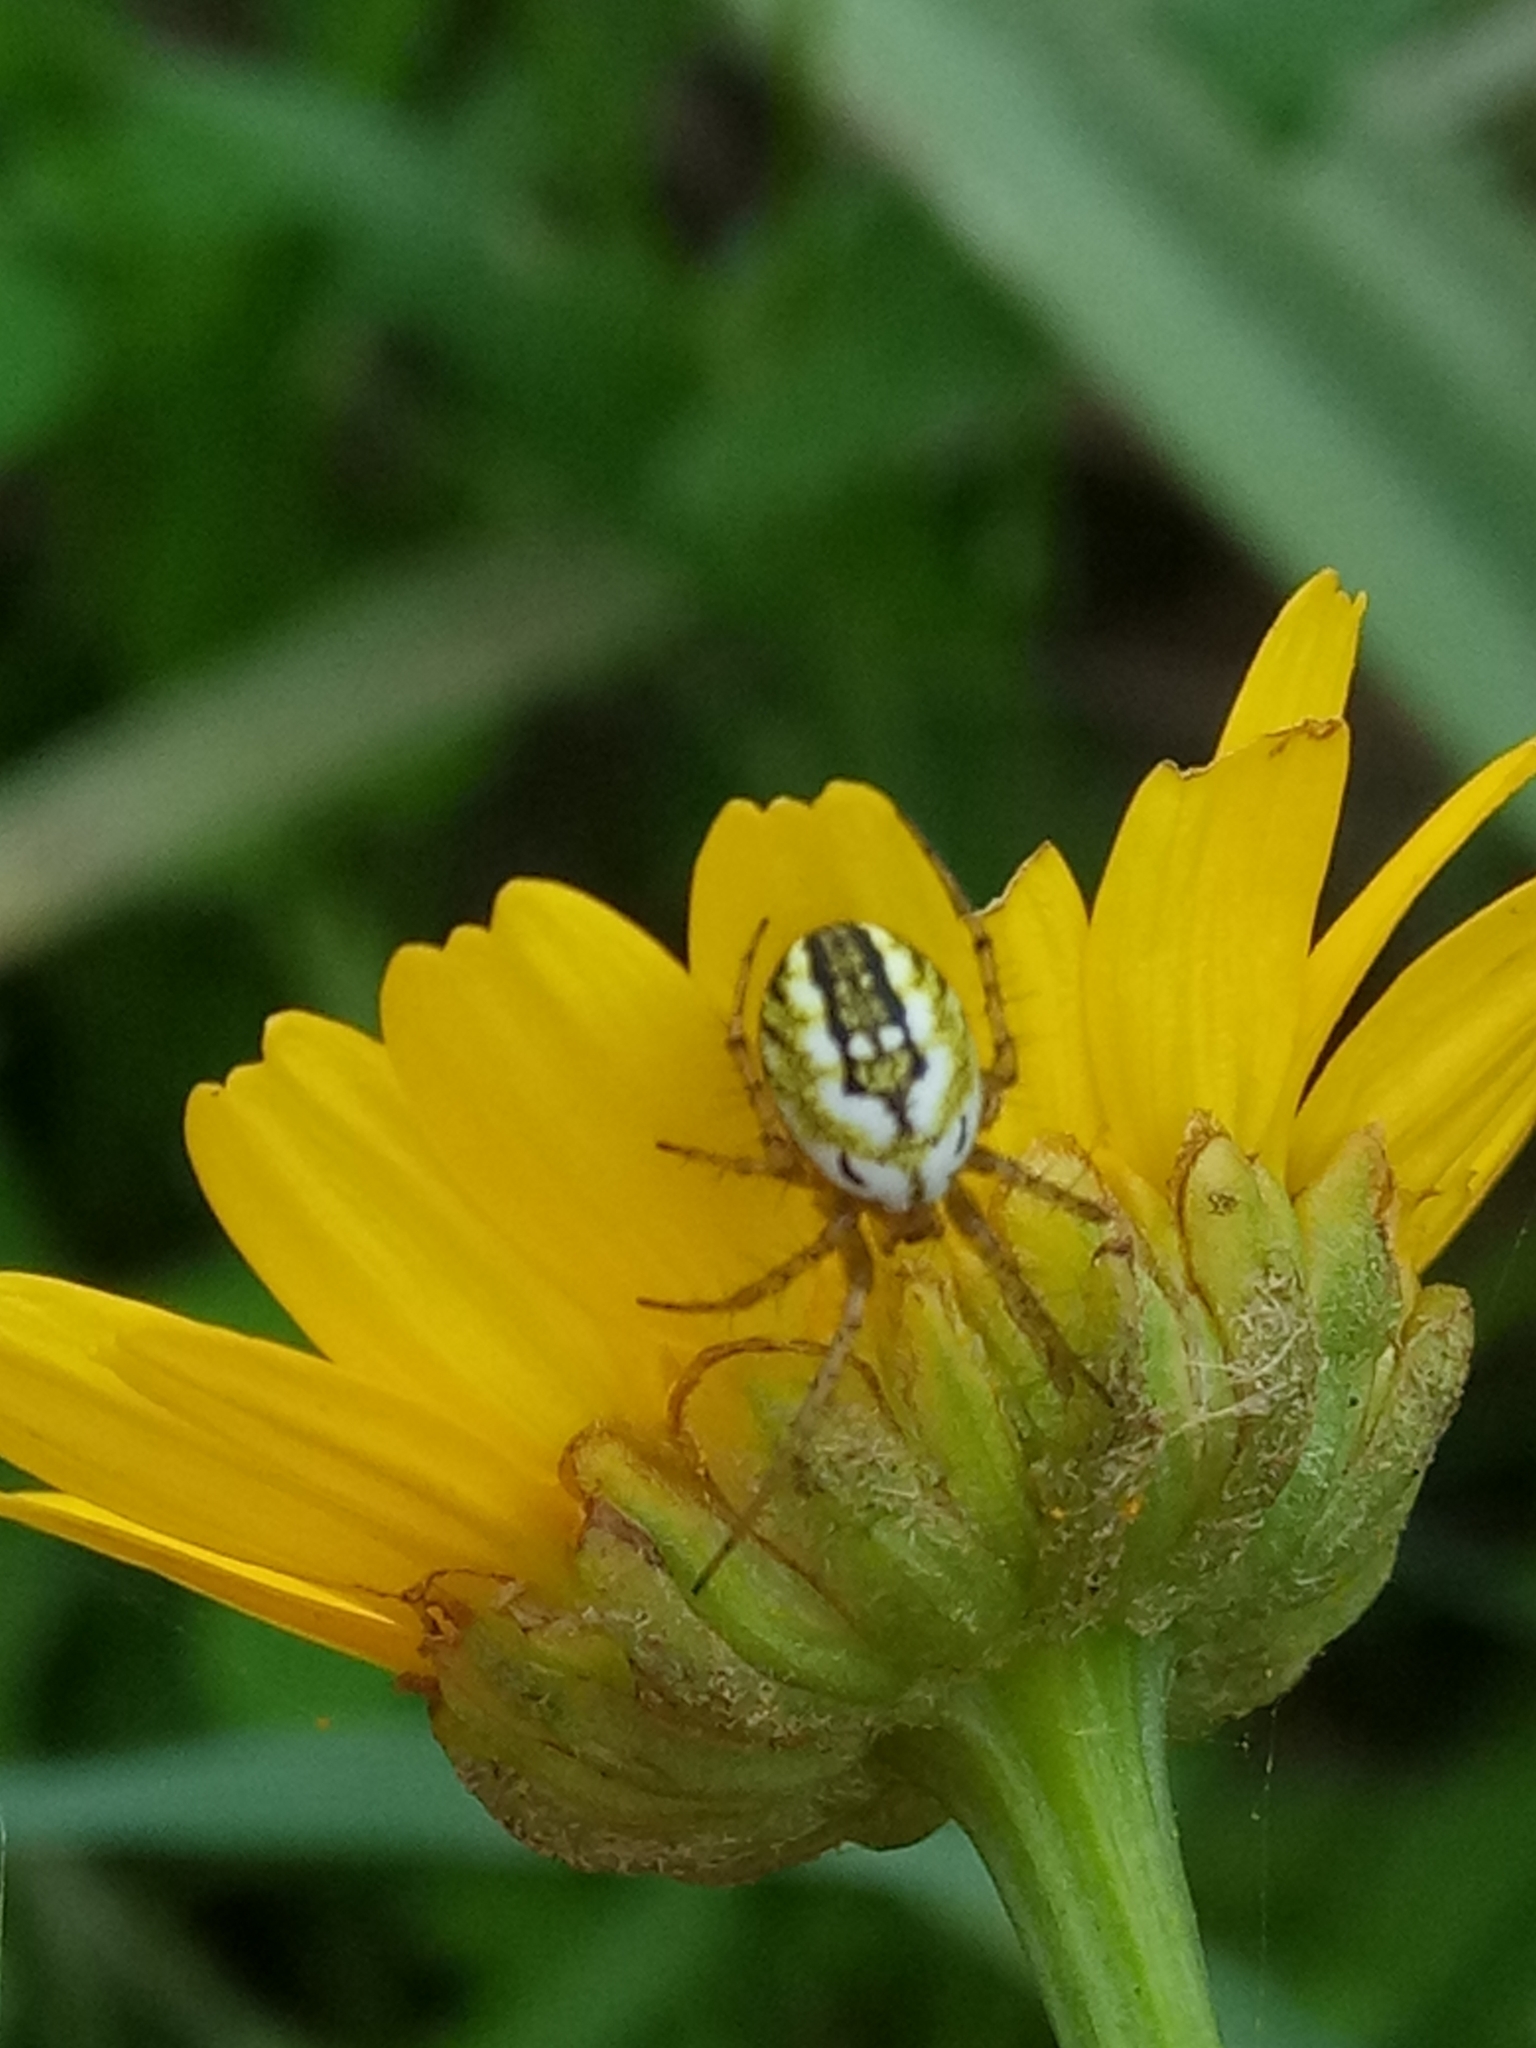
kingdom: Animalia
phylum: Arthropoda
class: Arachnida
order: Araneae
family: Araneidae
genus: Mangora
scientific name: Mangora acalypha
